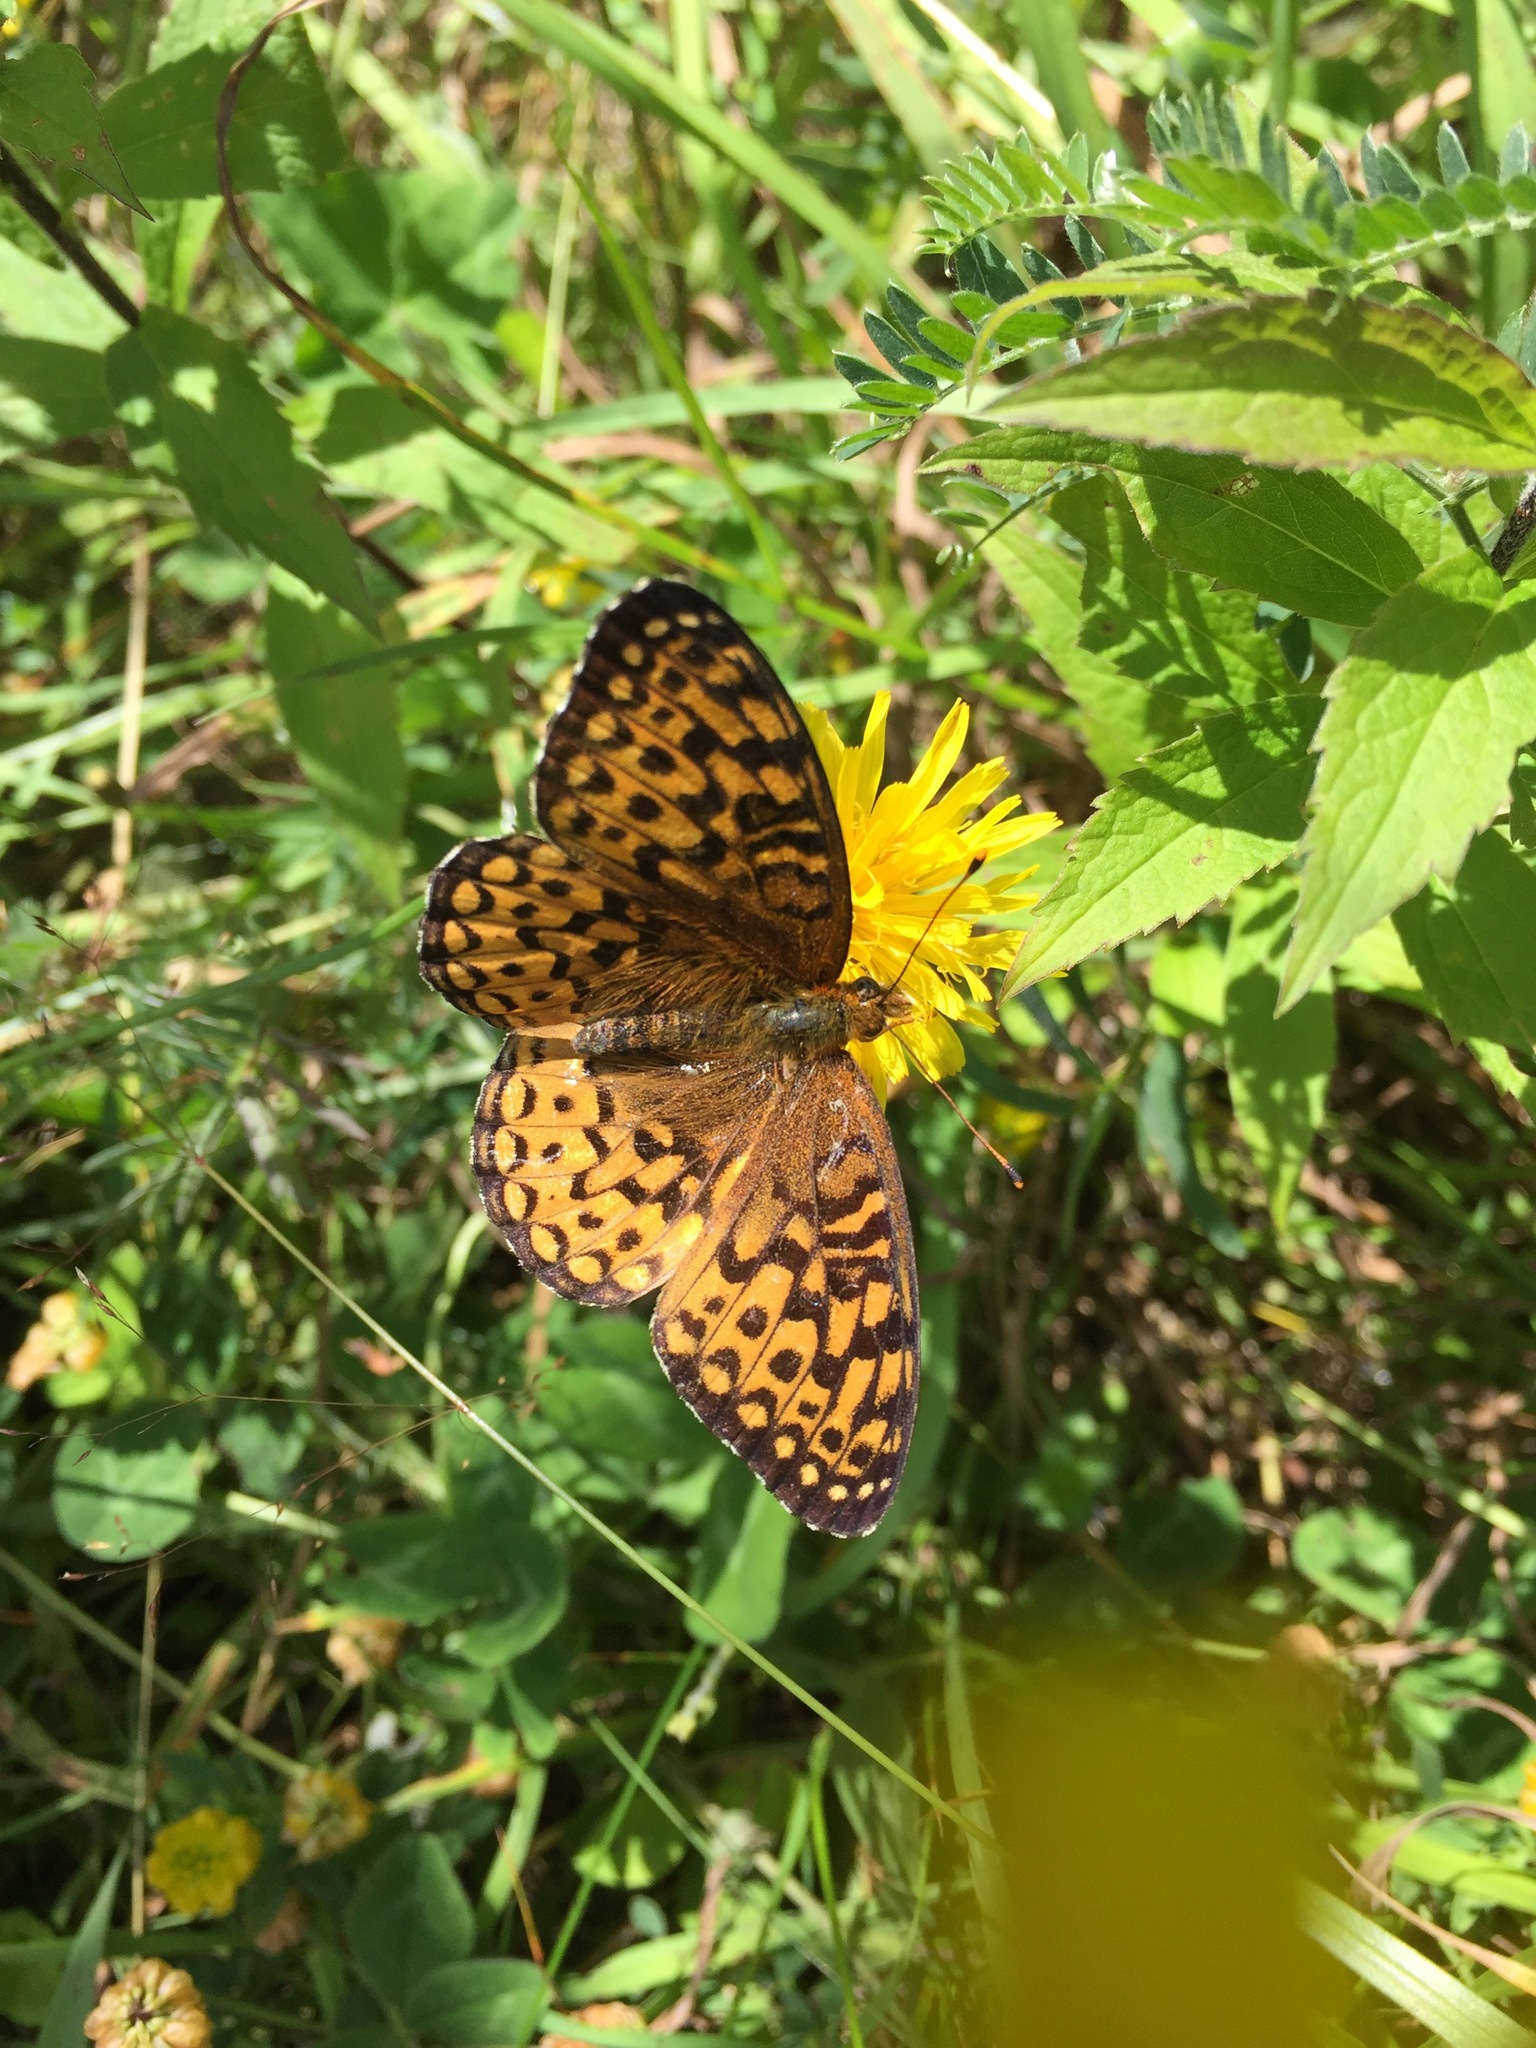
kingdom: Animalia
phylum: Arthropoda
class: Insecta
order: Lepidoptera
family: Nymphalidae
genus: Speyeria
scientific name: Speyeria atlantis
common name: Atlantis fritillary
